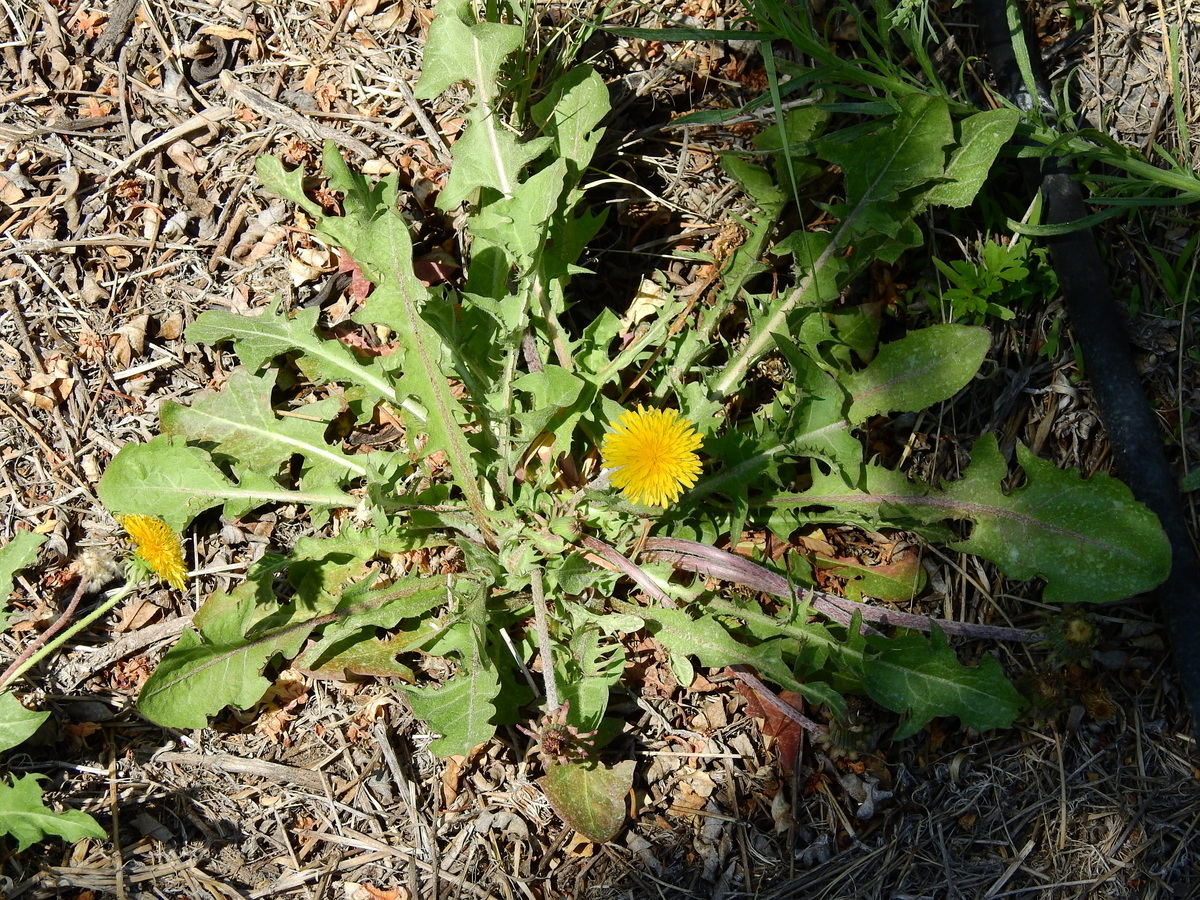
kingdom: Plantae
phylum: Tracheophyta
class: Magnoliopsida
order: Asterales
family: Asteraceae
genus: Taraxacum
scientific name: Taraxacum officinale
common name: Common dandelion
